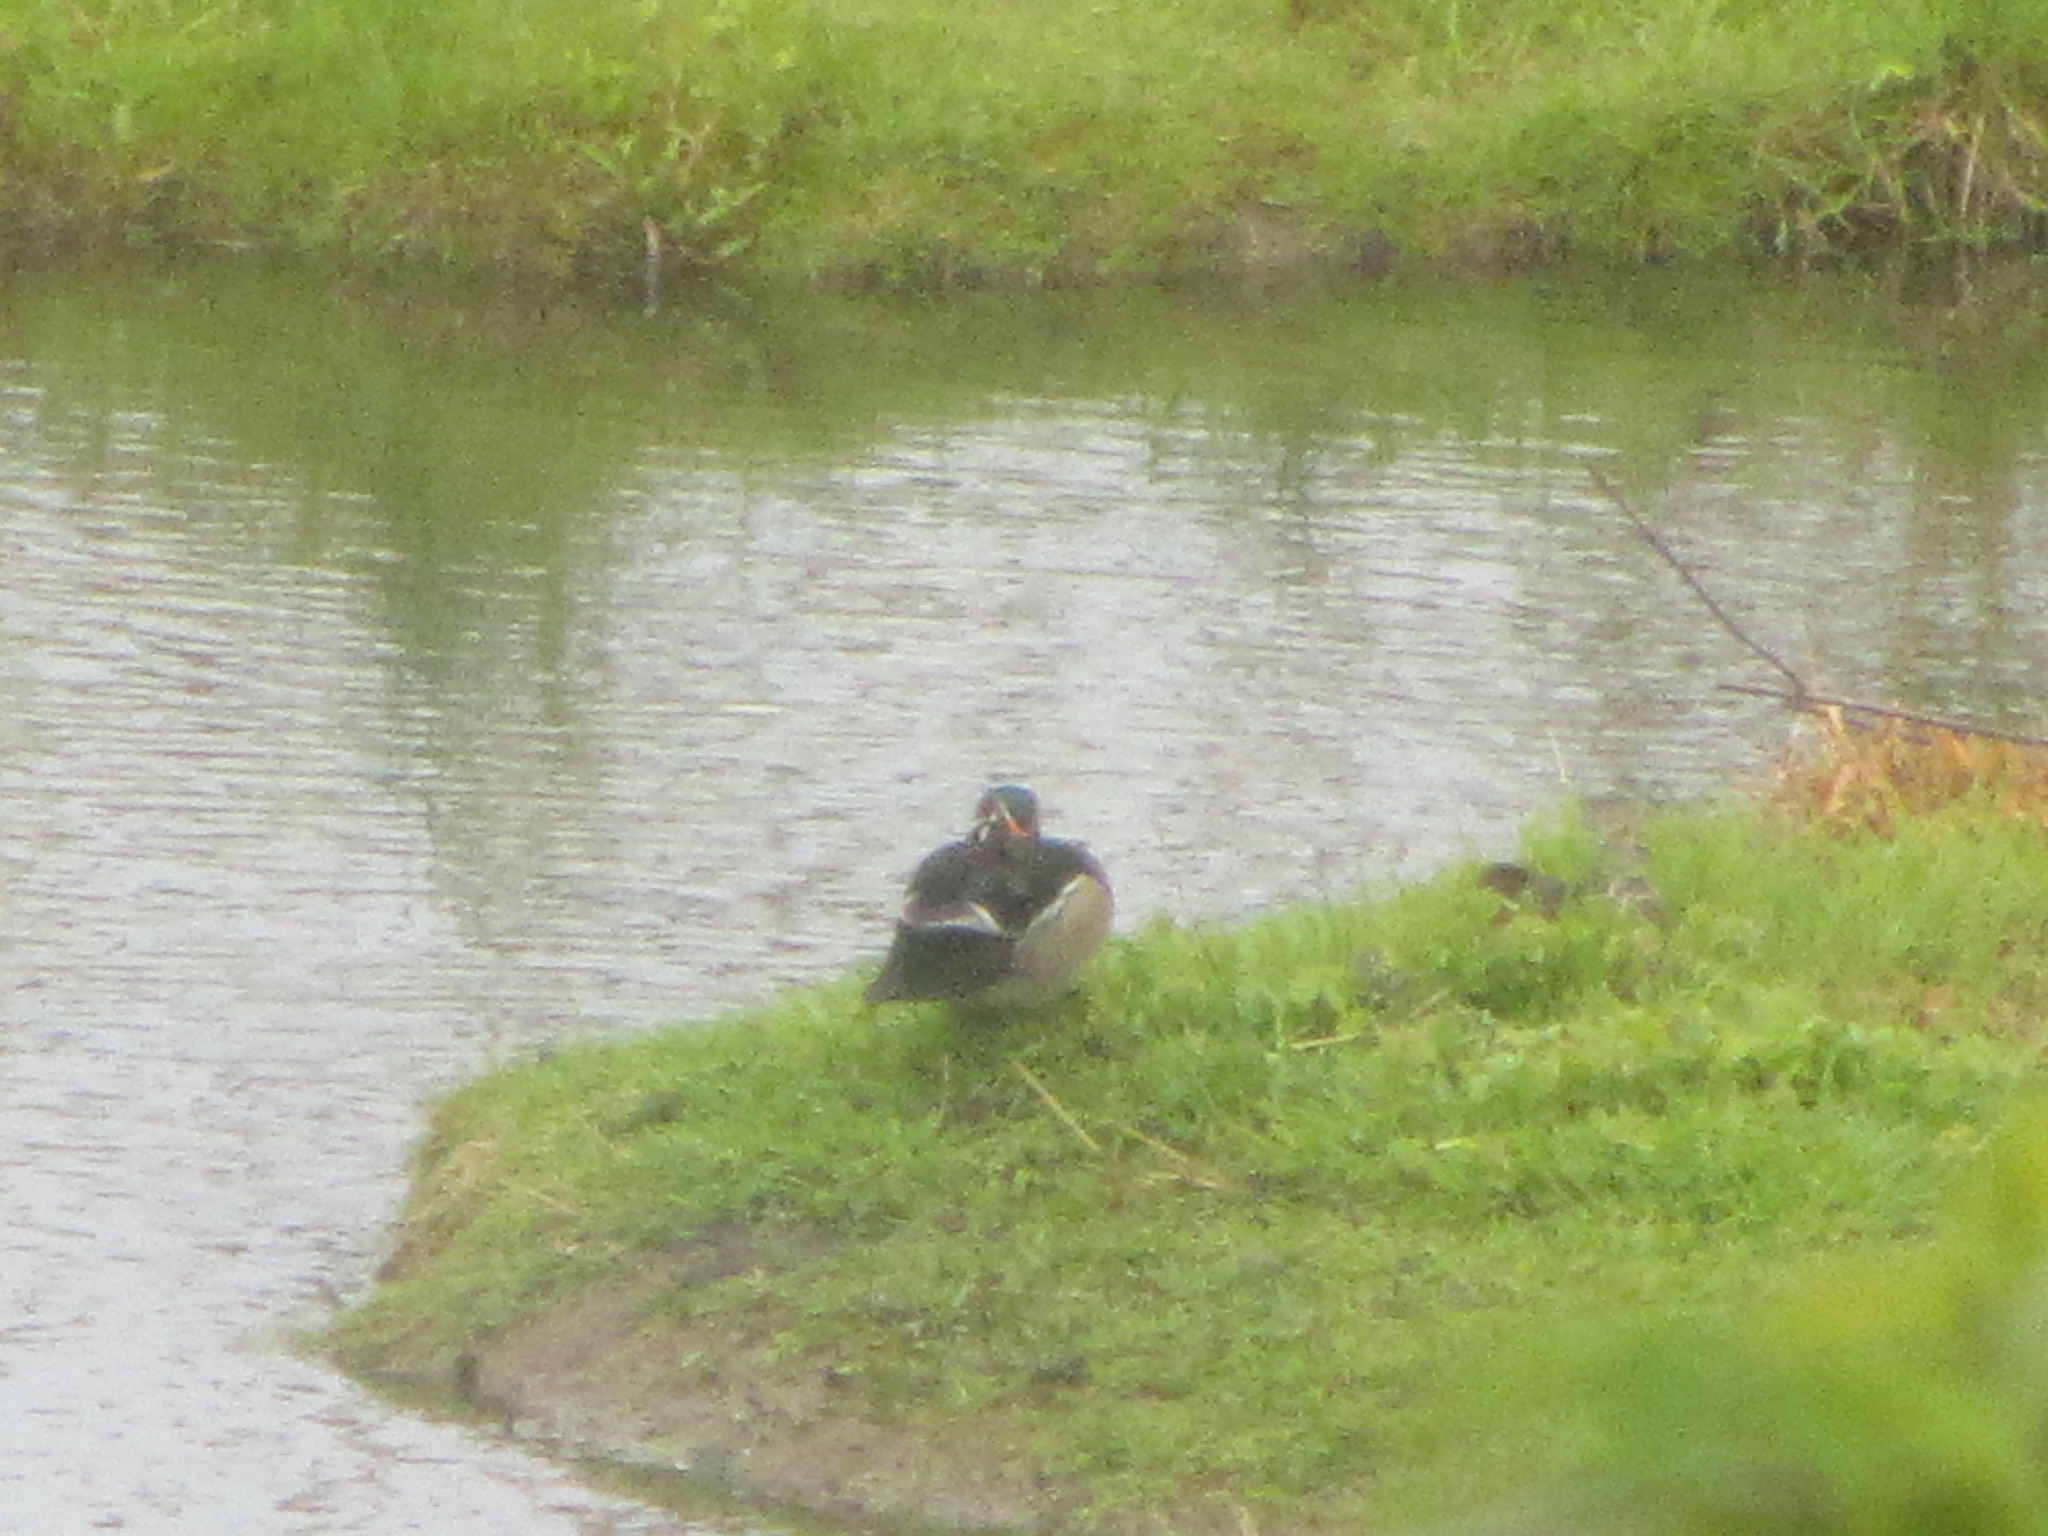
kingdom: Animalia
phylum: Chordata
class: Aves
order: Anseriformes
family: Anatidae
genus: Aix
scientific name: Aix sponsa
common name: Wood duck
